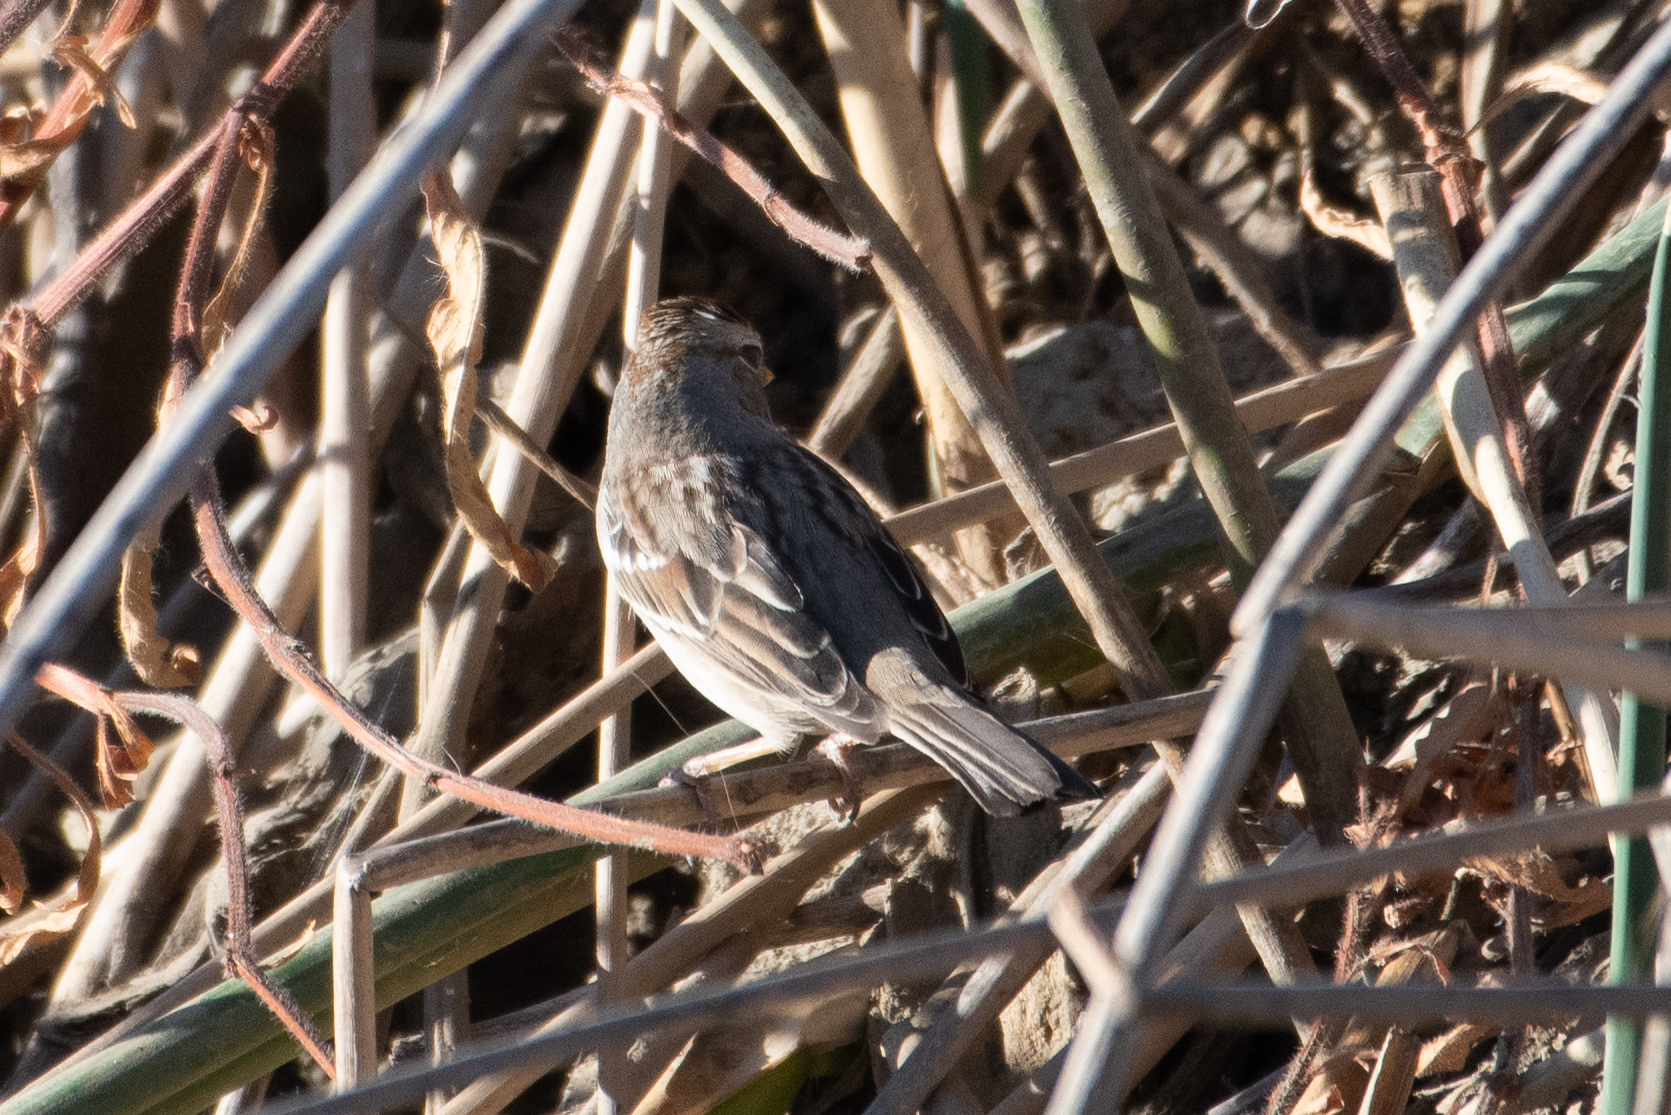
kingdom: Animalia
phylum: Chordata
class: Aves
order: Passeriformes
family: Passerellidae
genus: Zonotrichia
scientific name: Zonotrichia leucophrys
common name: White-crowned sparrow
